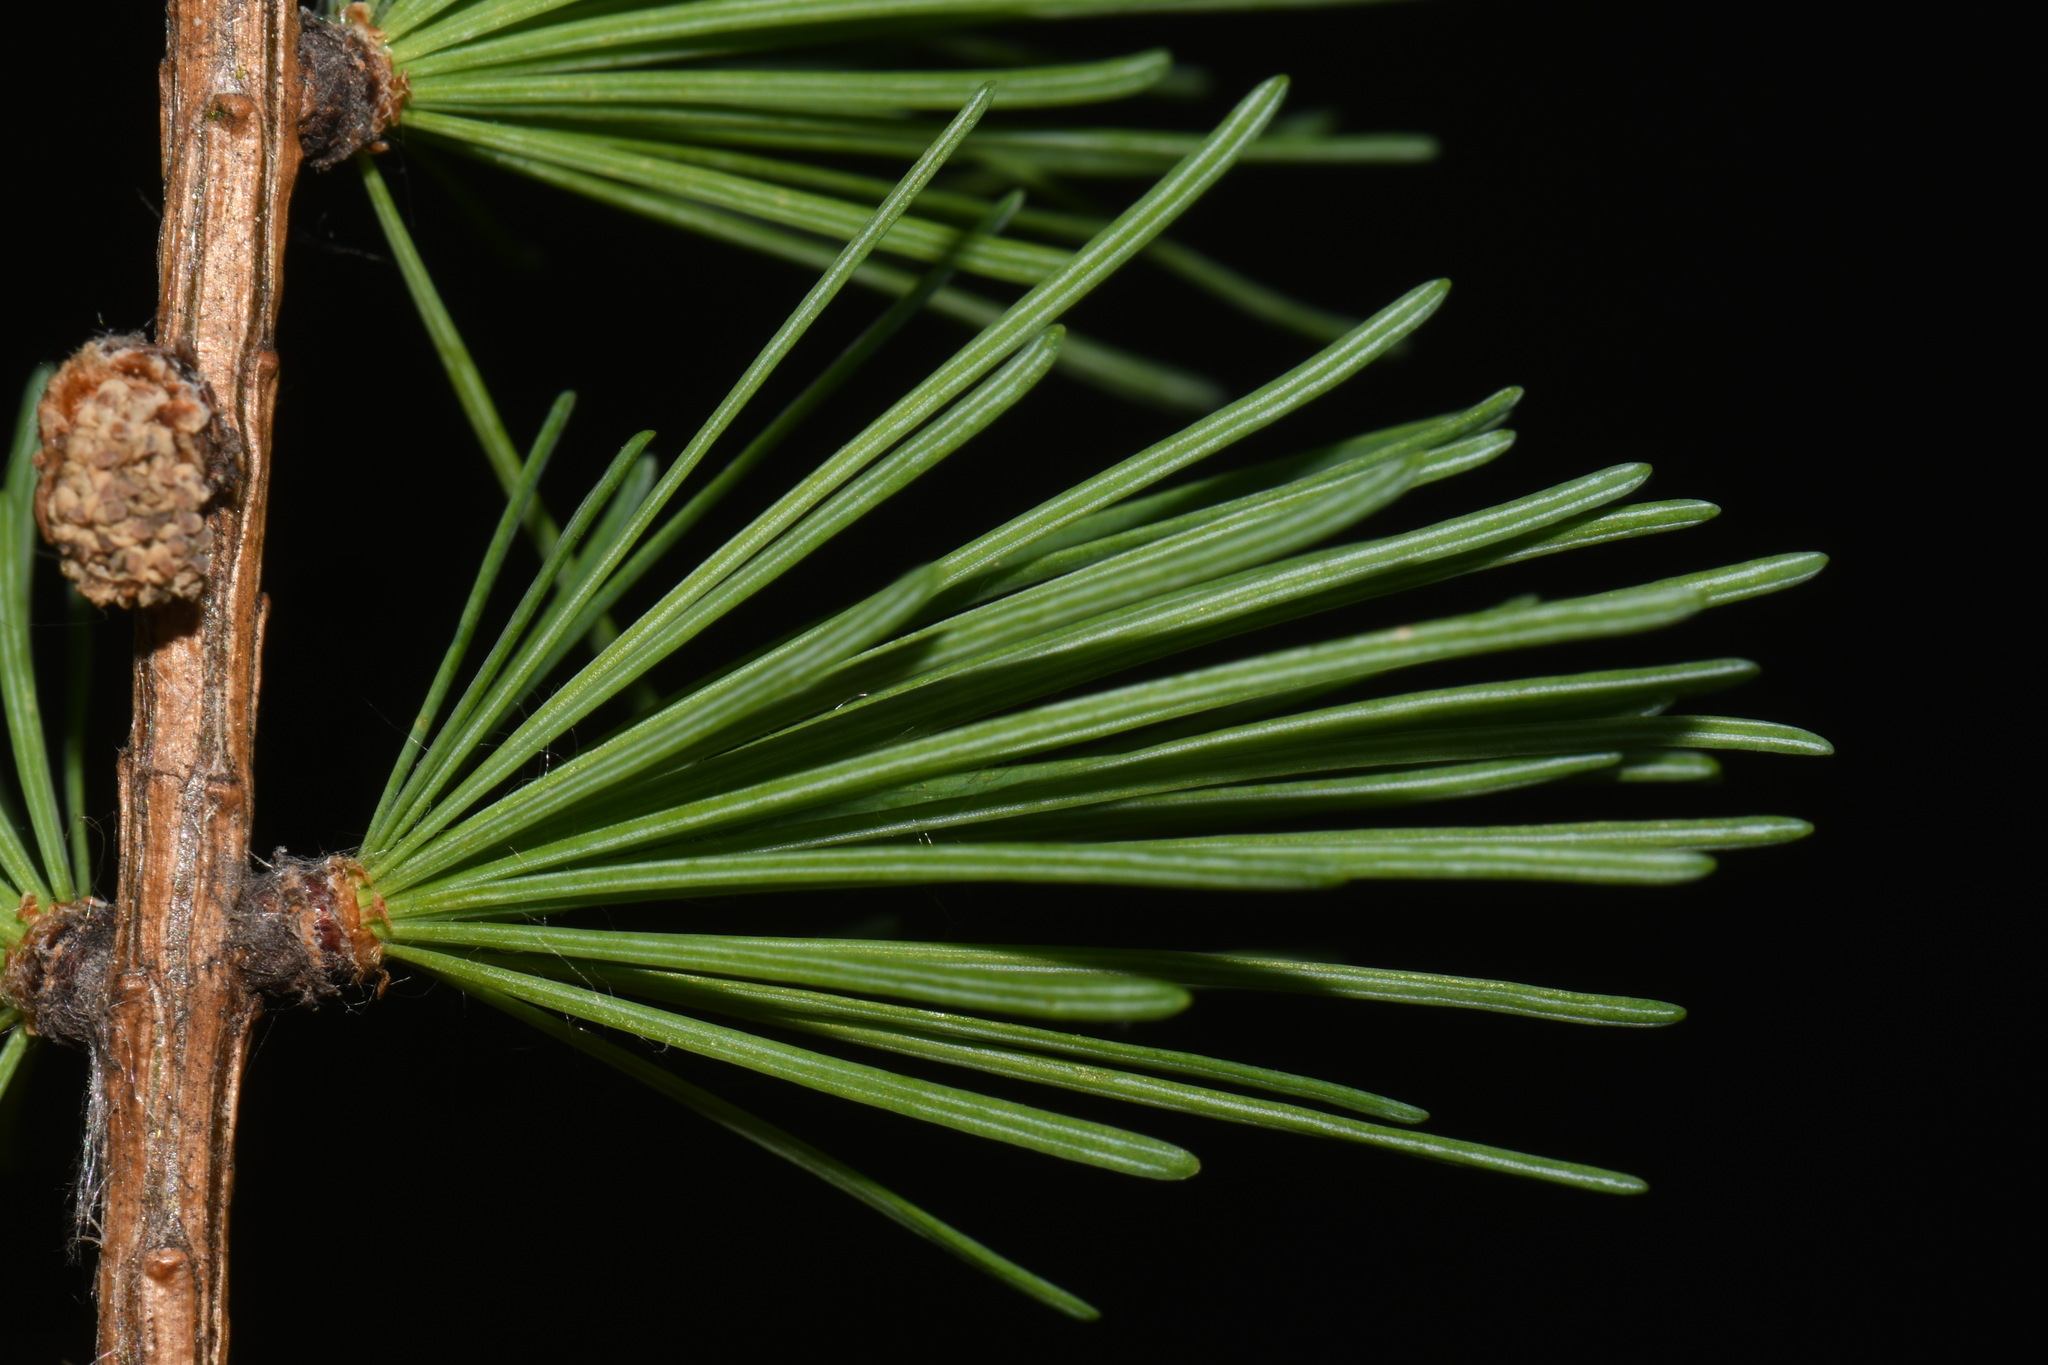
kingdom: Plantae
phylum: Tracheophyta
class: Pinopsida
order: Pinales
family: Pinaceae
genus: Larix
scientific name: Larix laricina
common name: American larch
